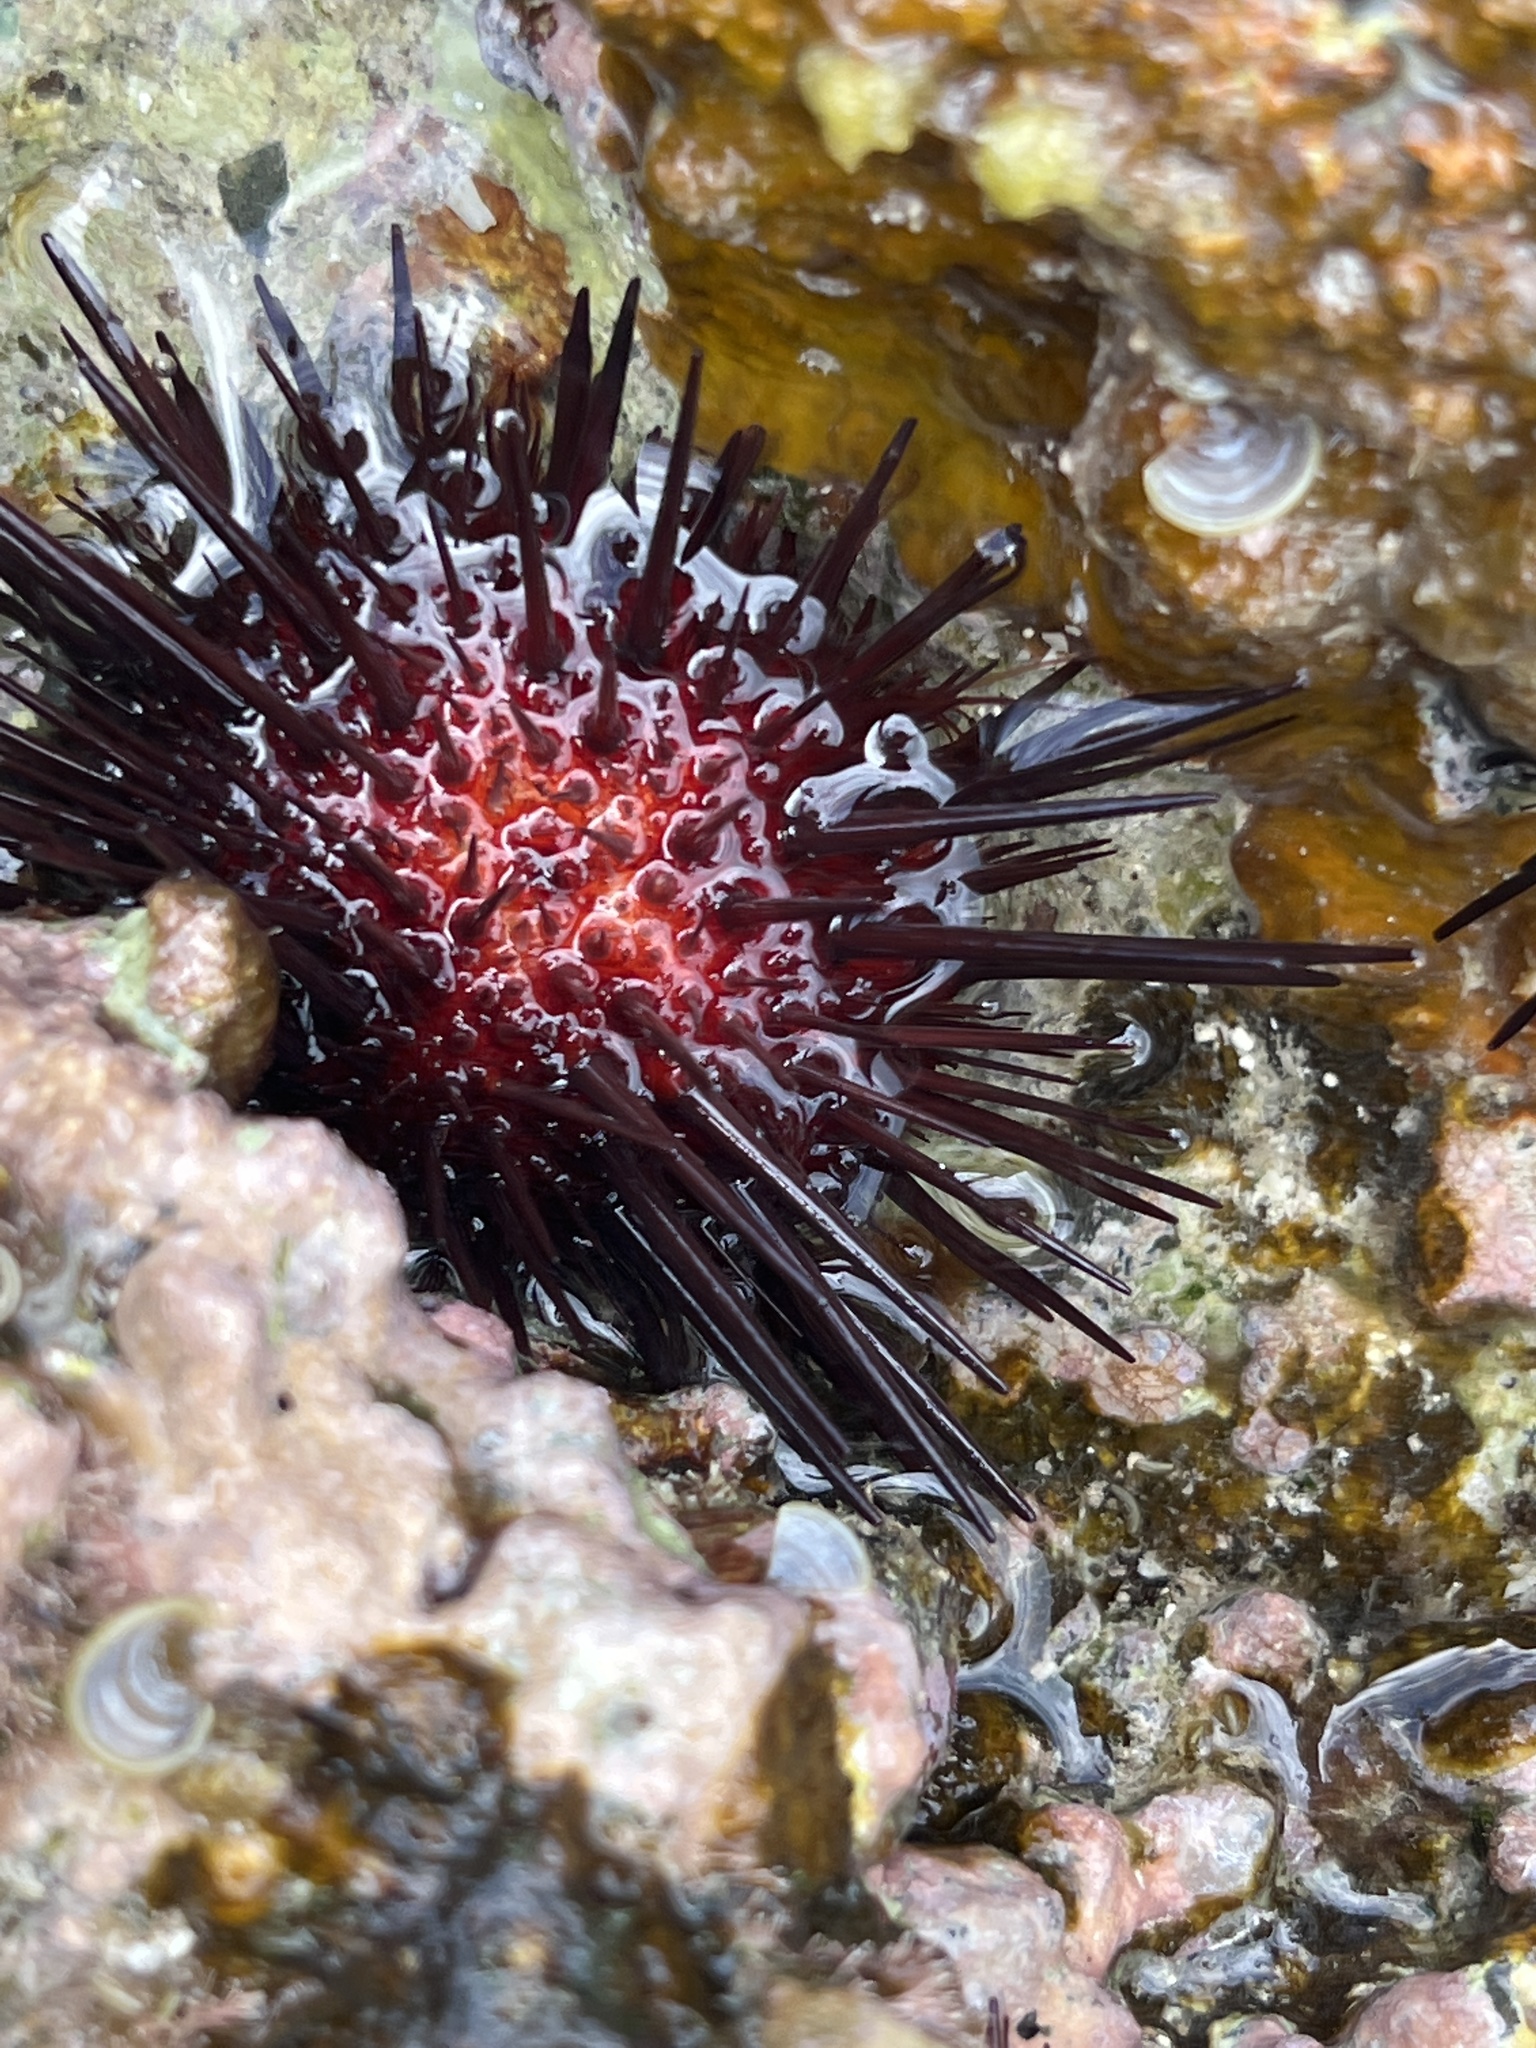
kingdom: Animalia
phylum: Echinodermata
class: Echinoidea
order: Camarodonta
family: Echinometridae
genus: Echinometra
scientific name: Echinometra lucunter
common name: Rock urchin
